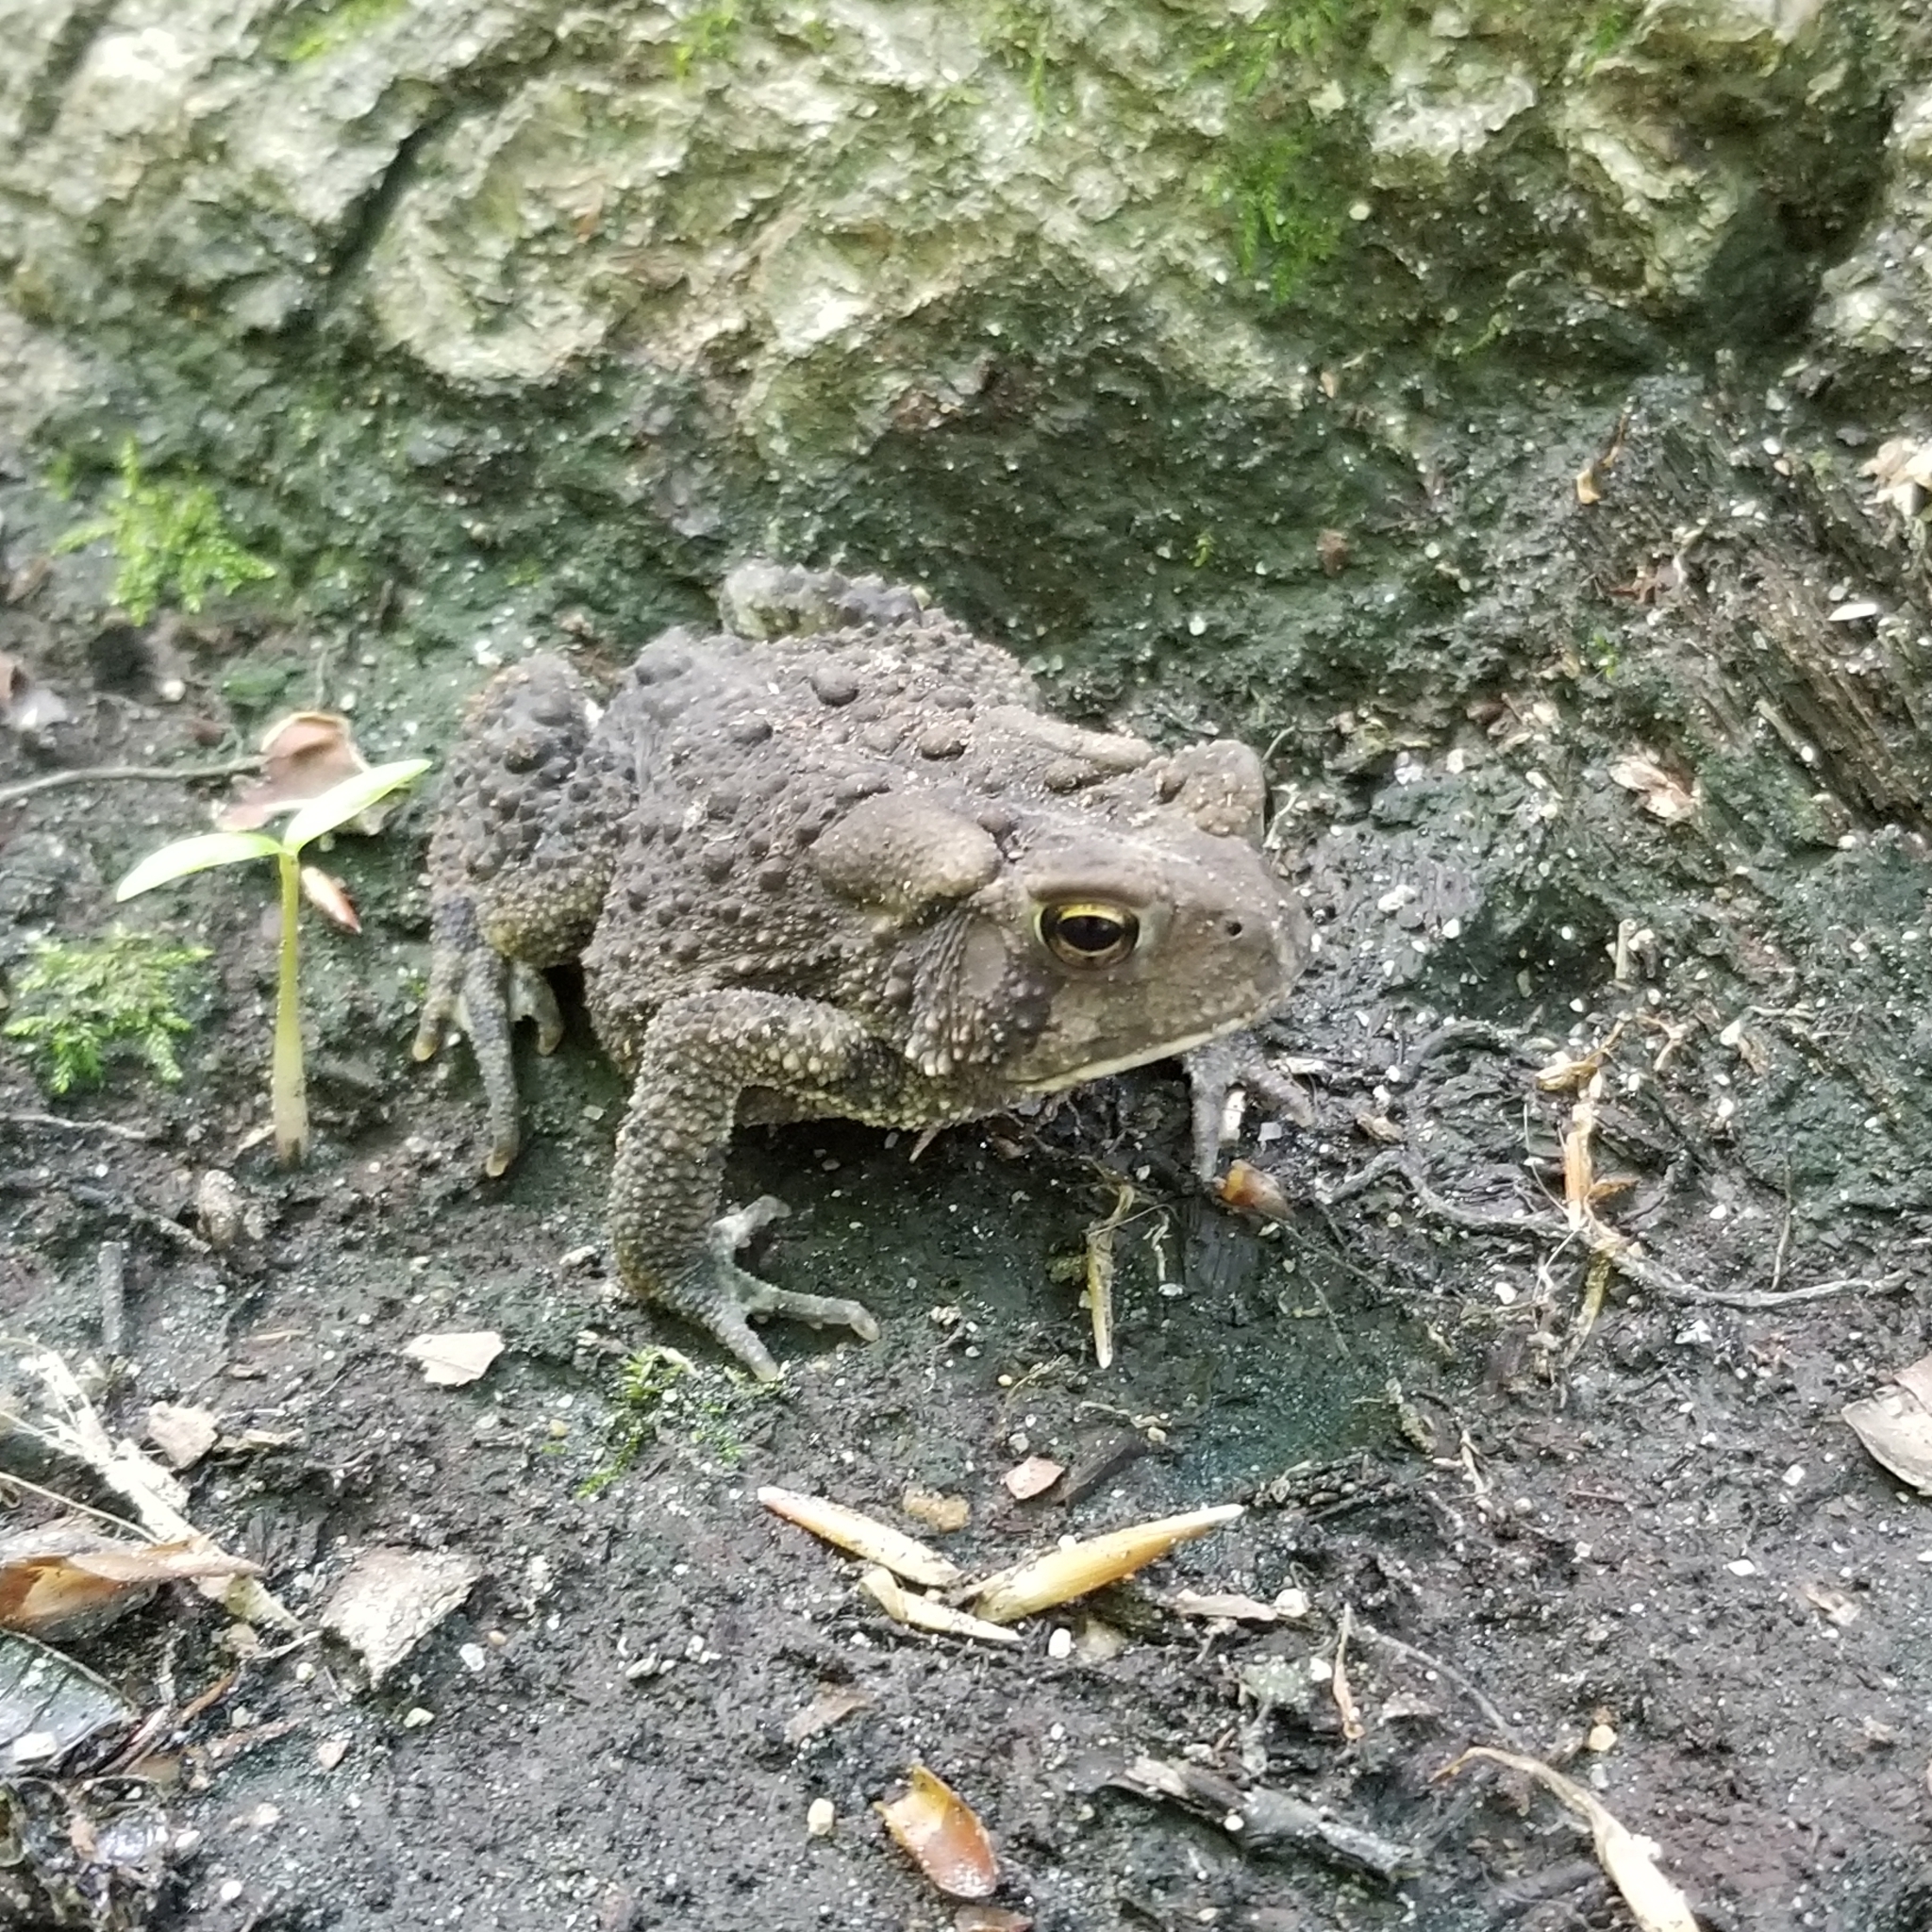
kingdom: Animalia
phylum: Chordata
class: Amphibia
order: Anura
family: Bufonidae
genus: Anaxyrus
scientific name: Anaxyrus americanus
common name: American toad
